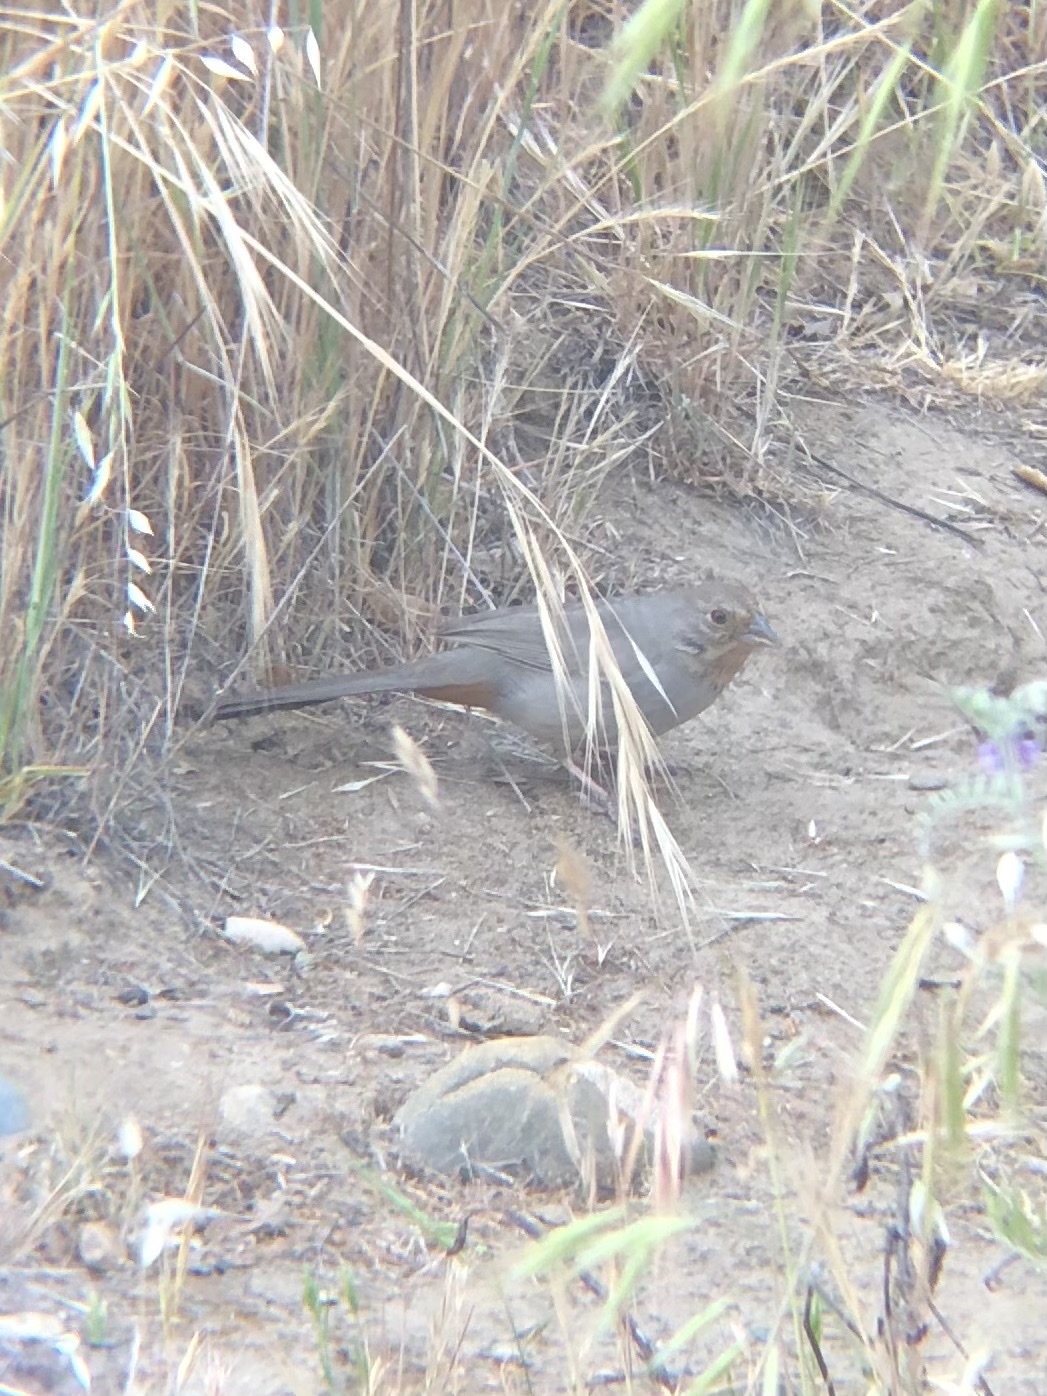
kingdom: Animalia
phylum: Chordata
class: Aves
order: Passeriformes
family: Passerellidae
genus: Melozone
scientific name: Melozone crissalis
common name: California towhee
